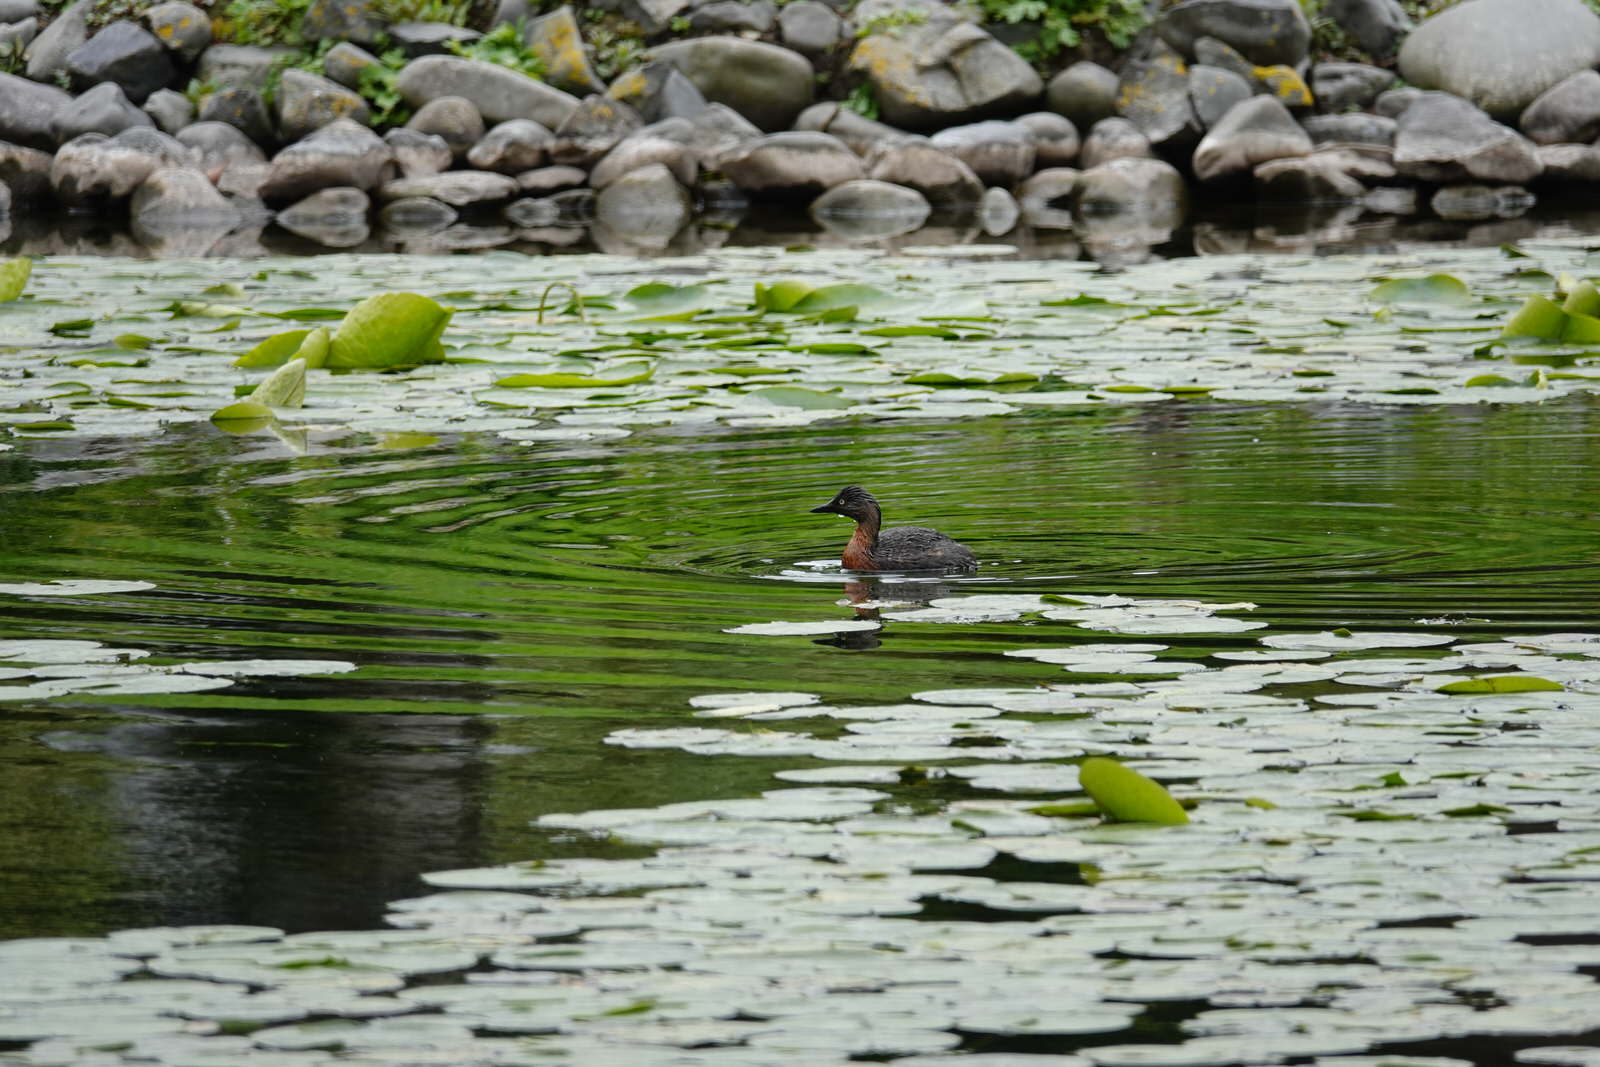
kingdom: Animalia
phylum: Chordata
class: Aves
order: Podicipediformes
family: Podicipedidae
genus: Poliocephalus
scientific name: Poliocephalus rufopectus
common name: New zealand grebe
